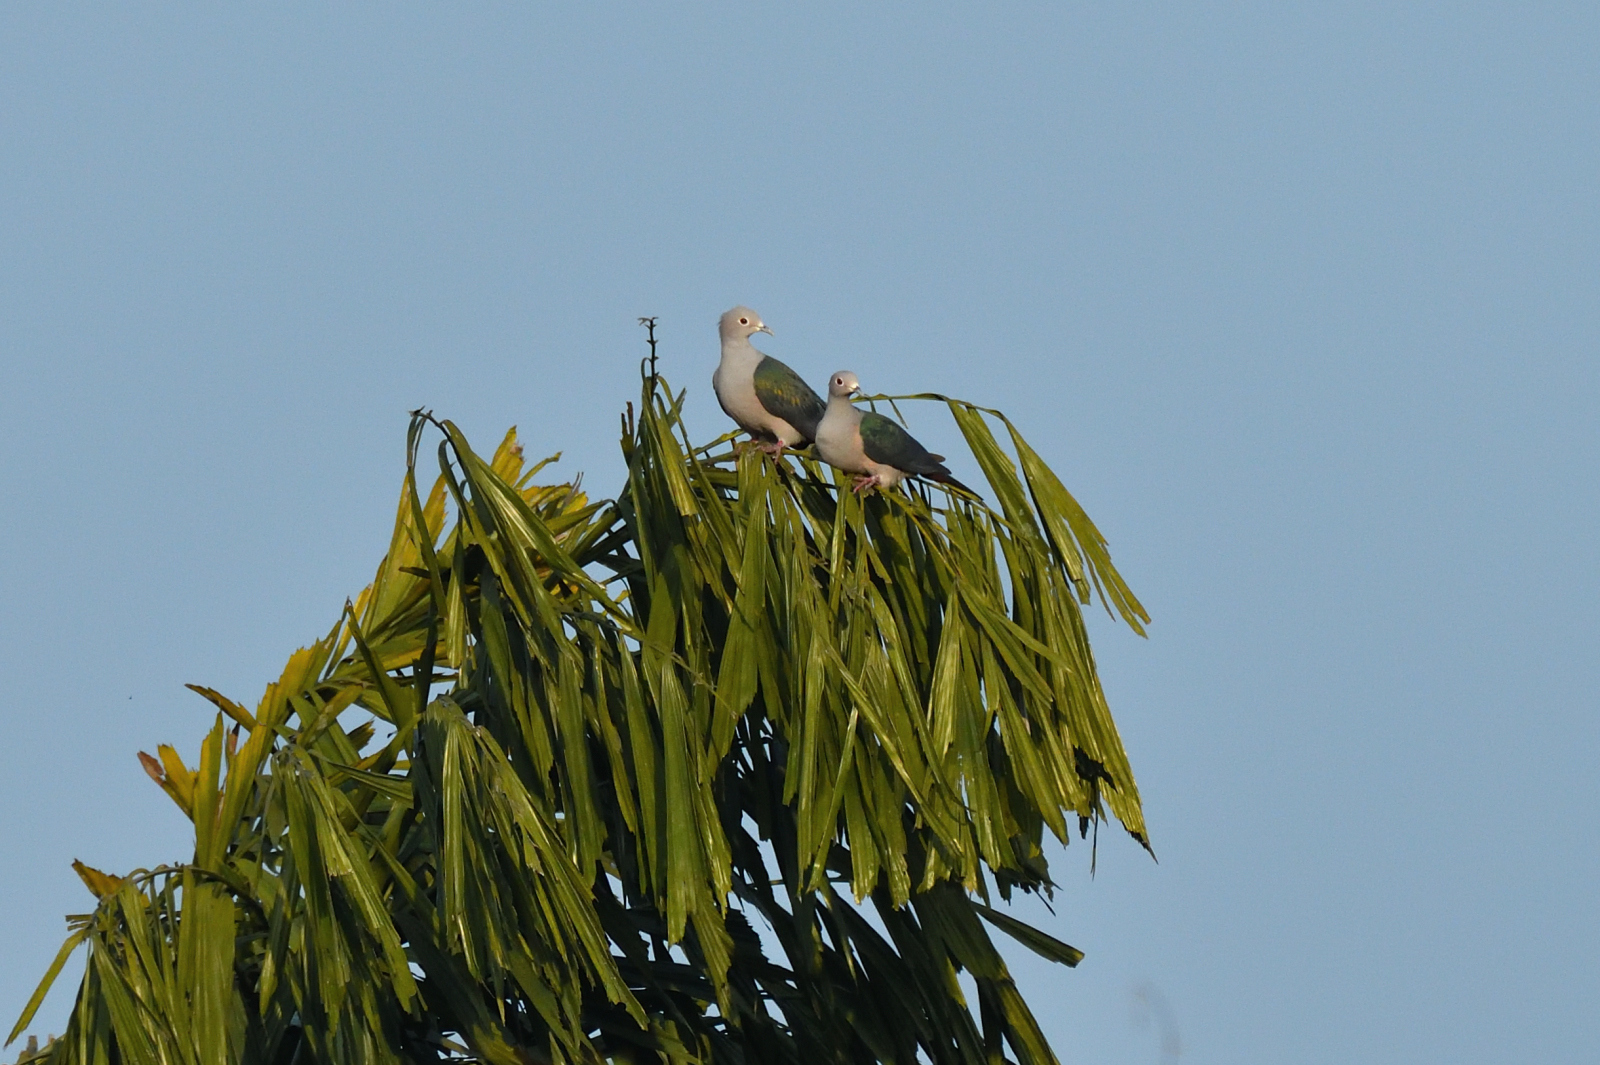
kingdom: Animalia
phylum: Chordata
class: Aves
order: Columbiformes
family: Columbidae
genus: Ducula
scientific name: Ducula aenea
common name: Green imperial pigeon
